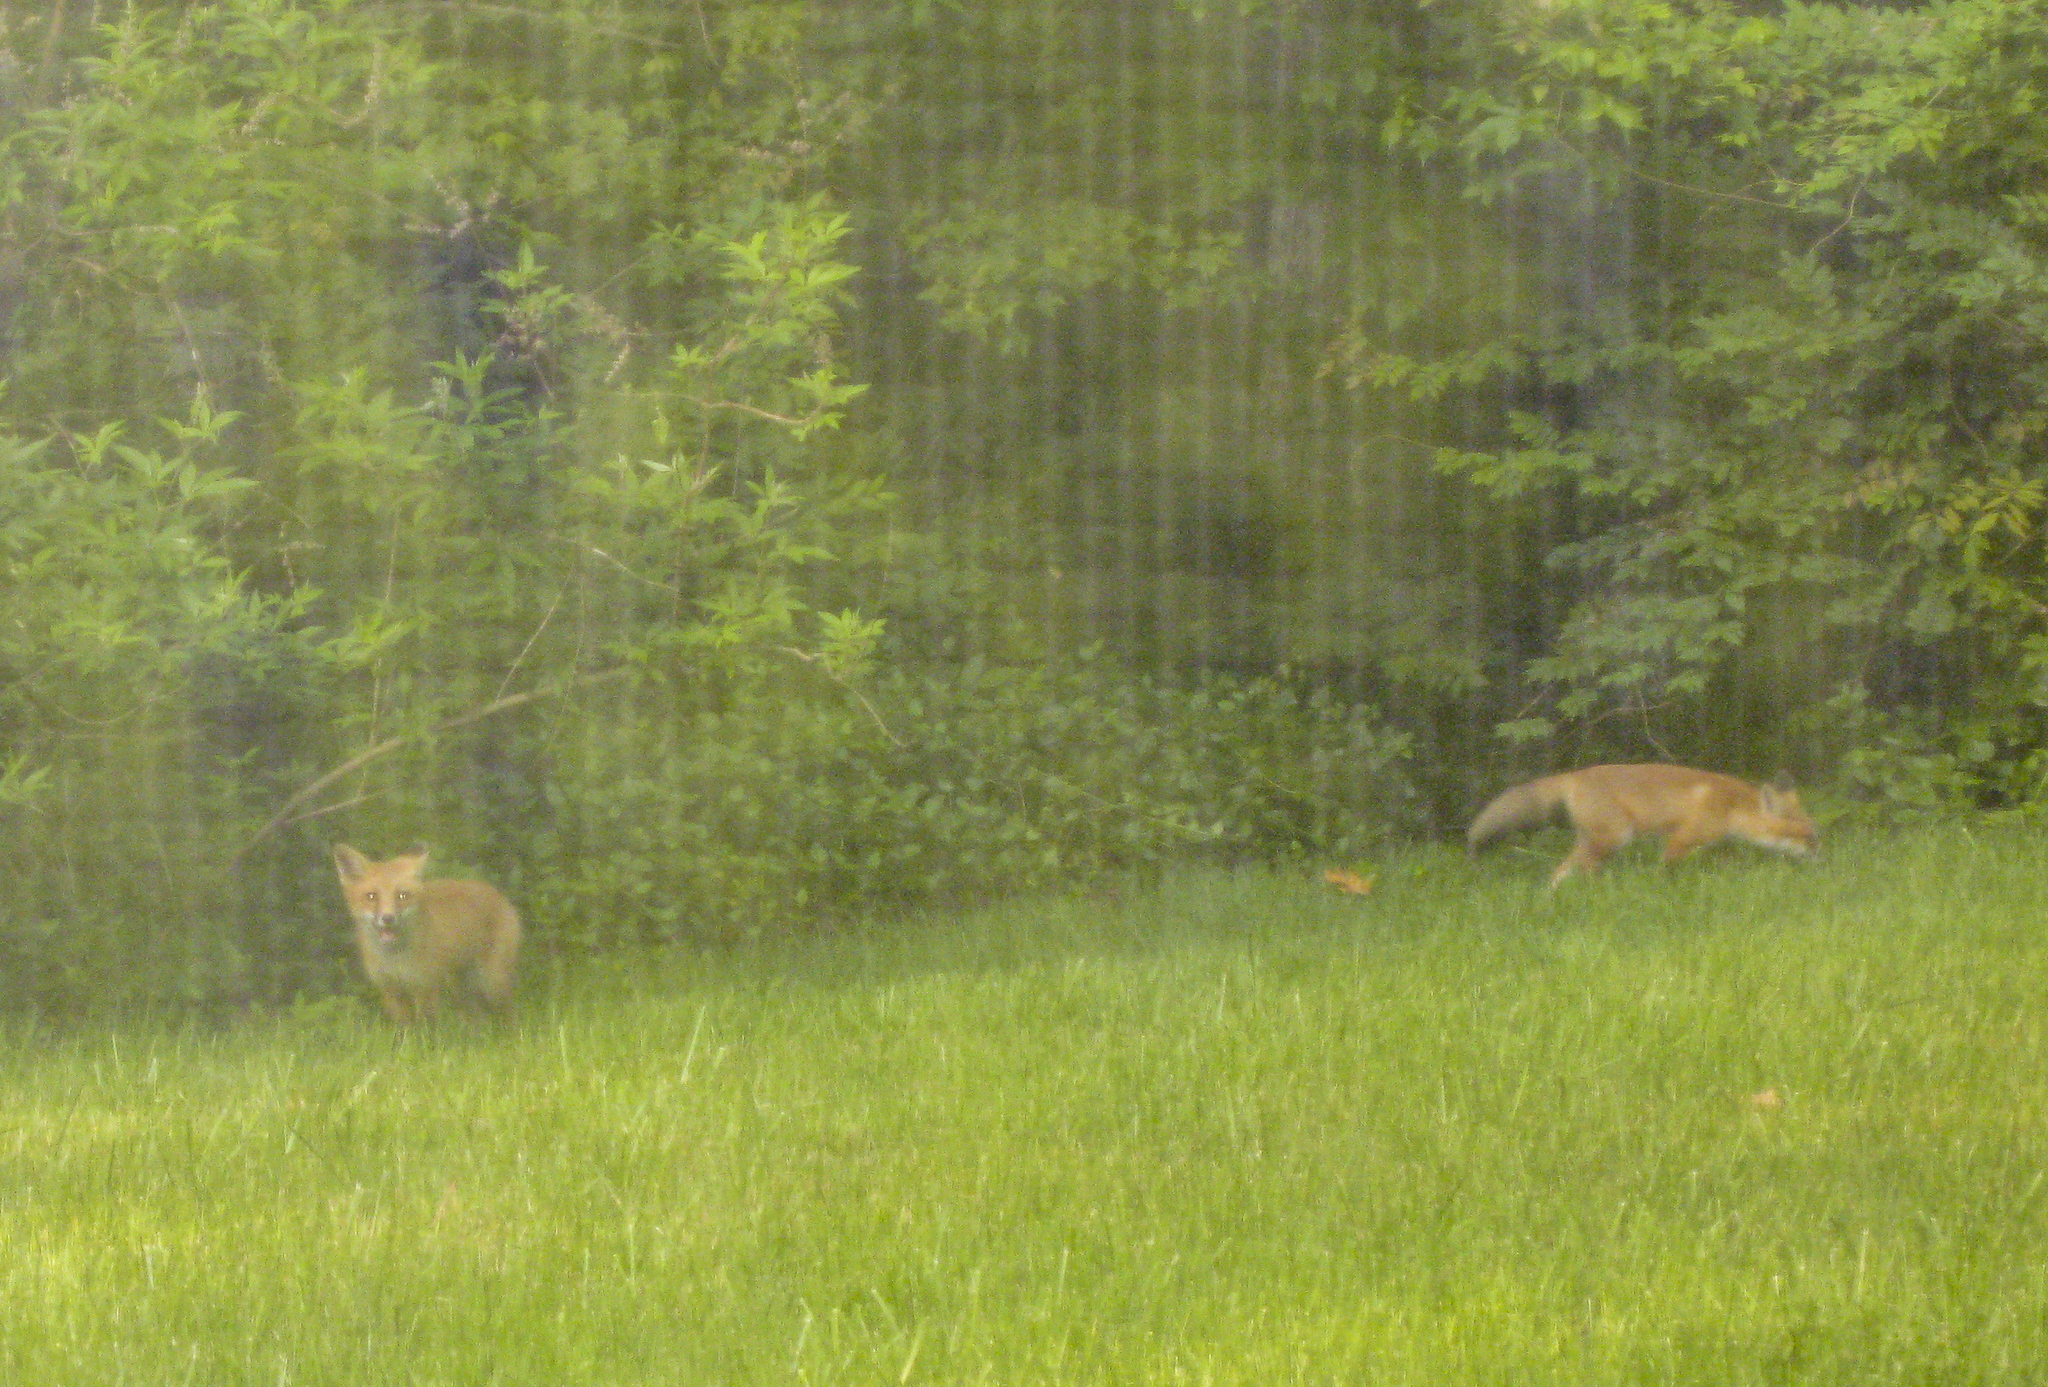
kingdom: Animalia
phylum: Chordata
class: Mammalia
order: Carnivora
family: Canidae
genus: Vulpes
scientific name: Vulpes vulpes
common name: Red fox
